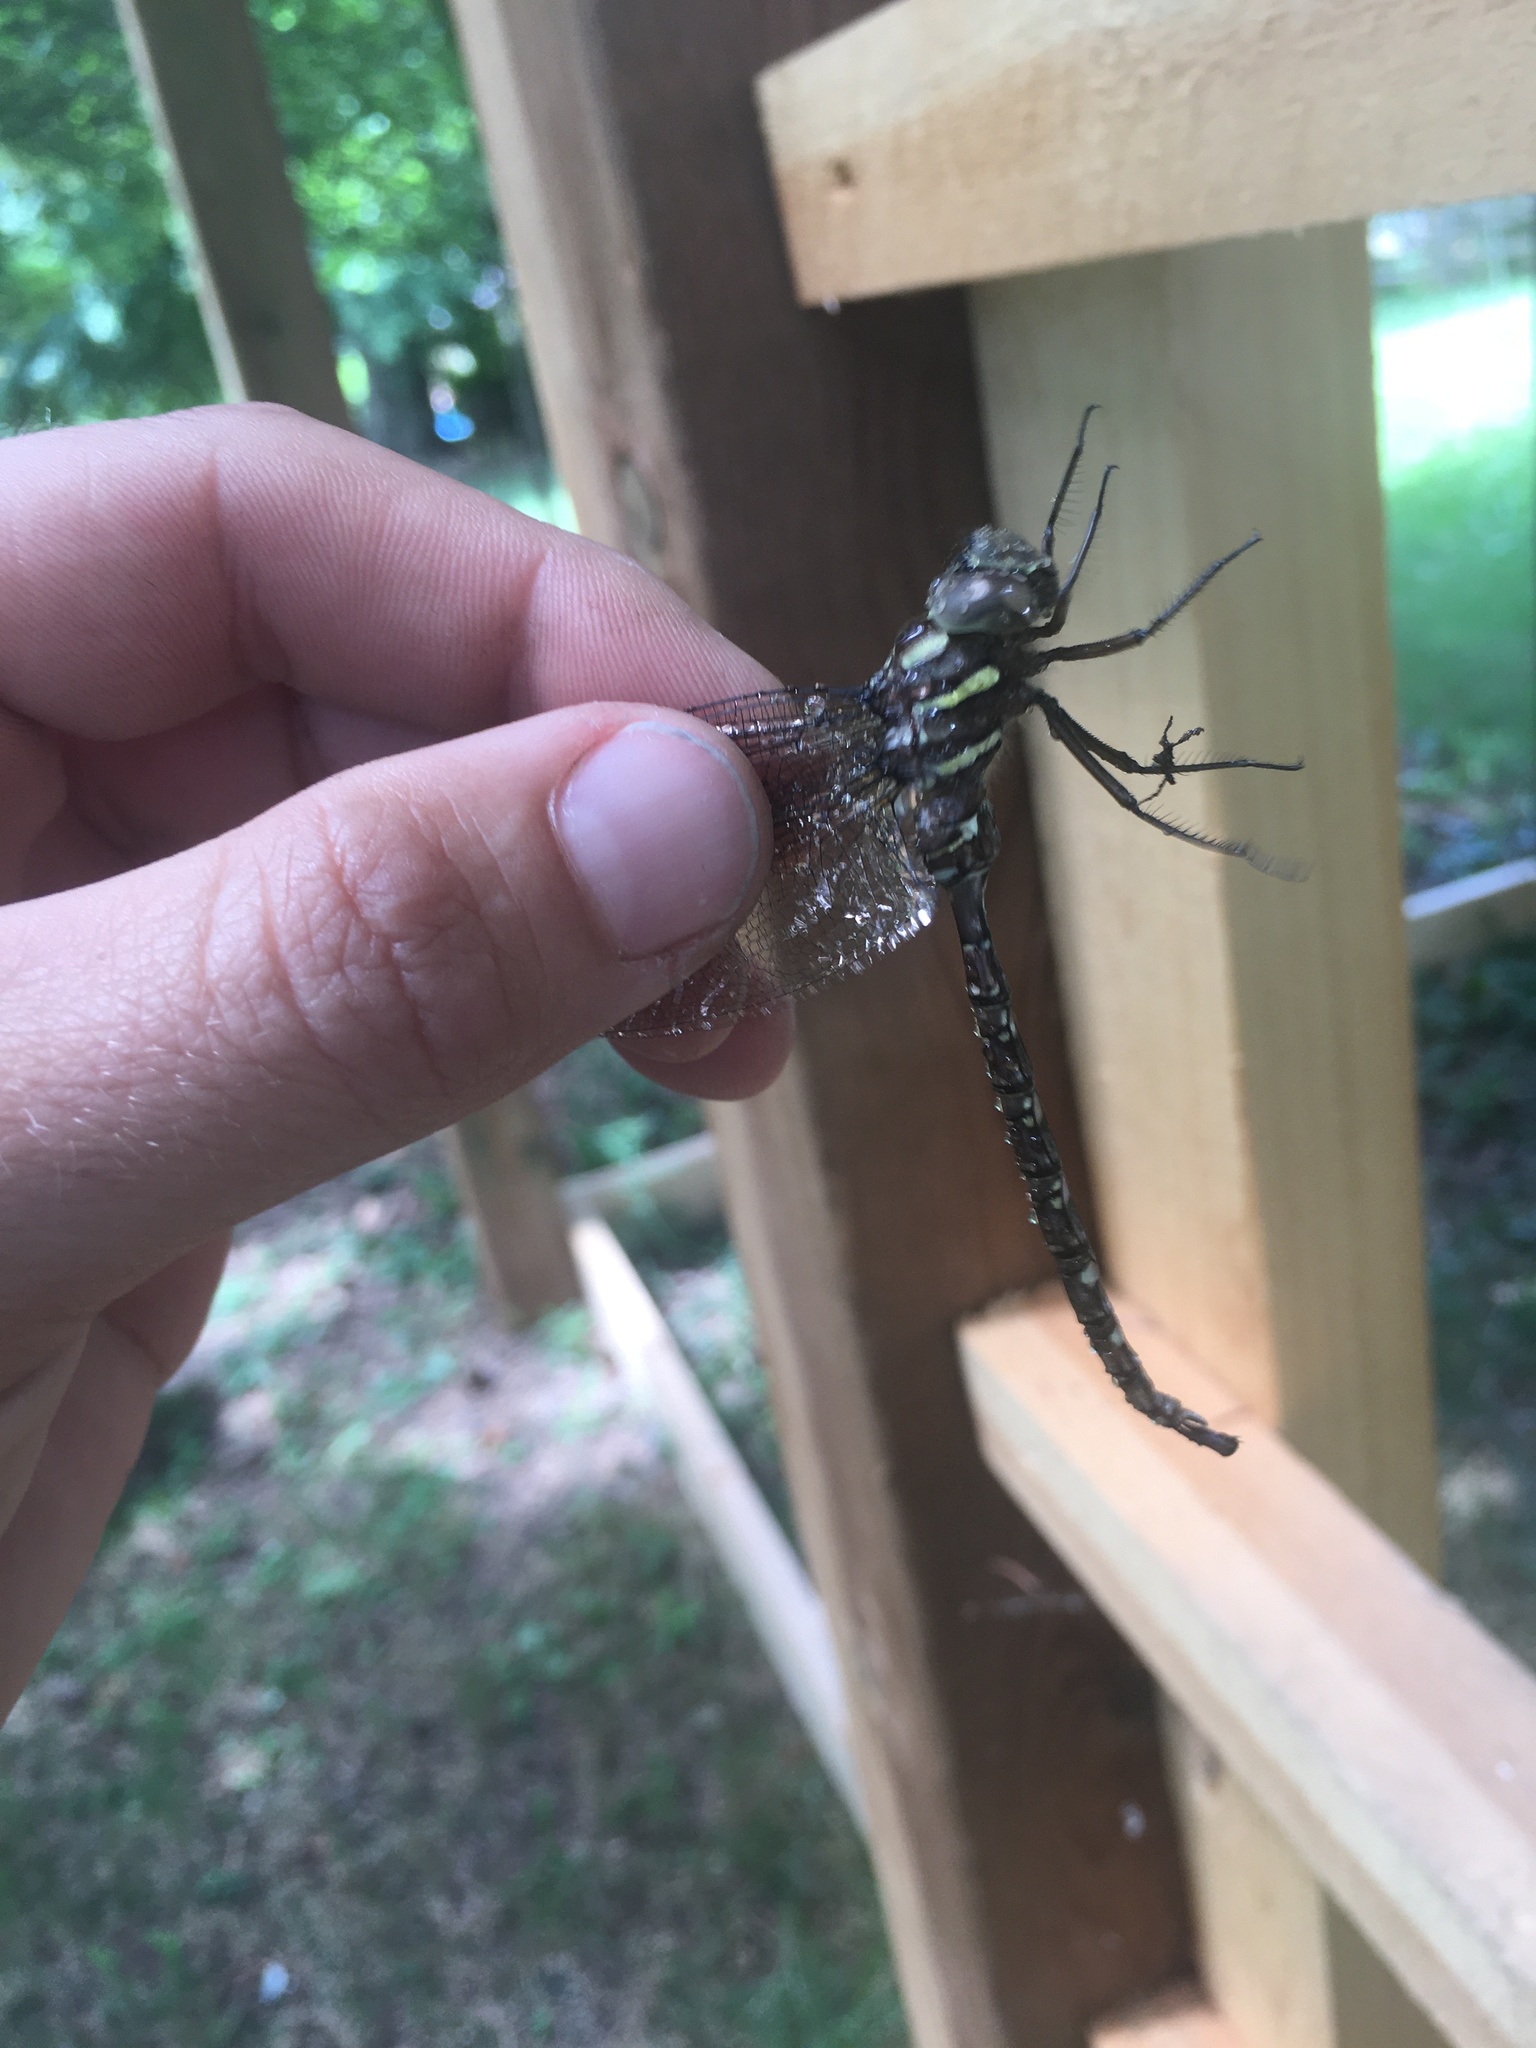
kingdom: Animalia
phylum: Arthropoda
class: Insecta
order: Odonata
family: Aeshnidae
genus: Aeshna
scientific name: Aeshna umbrosa
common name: Shadow darner
